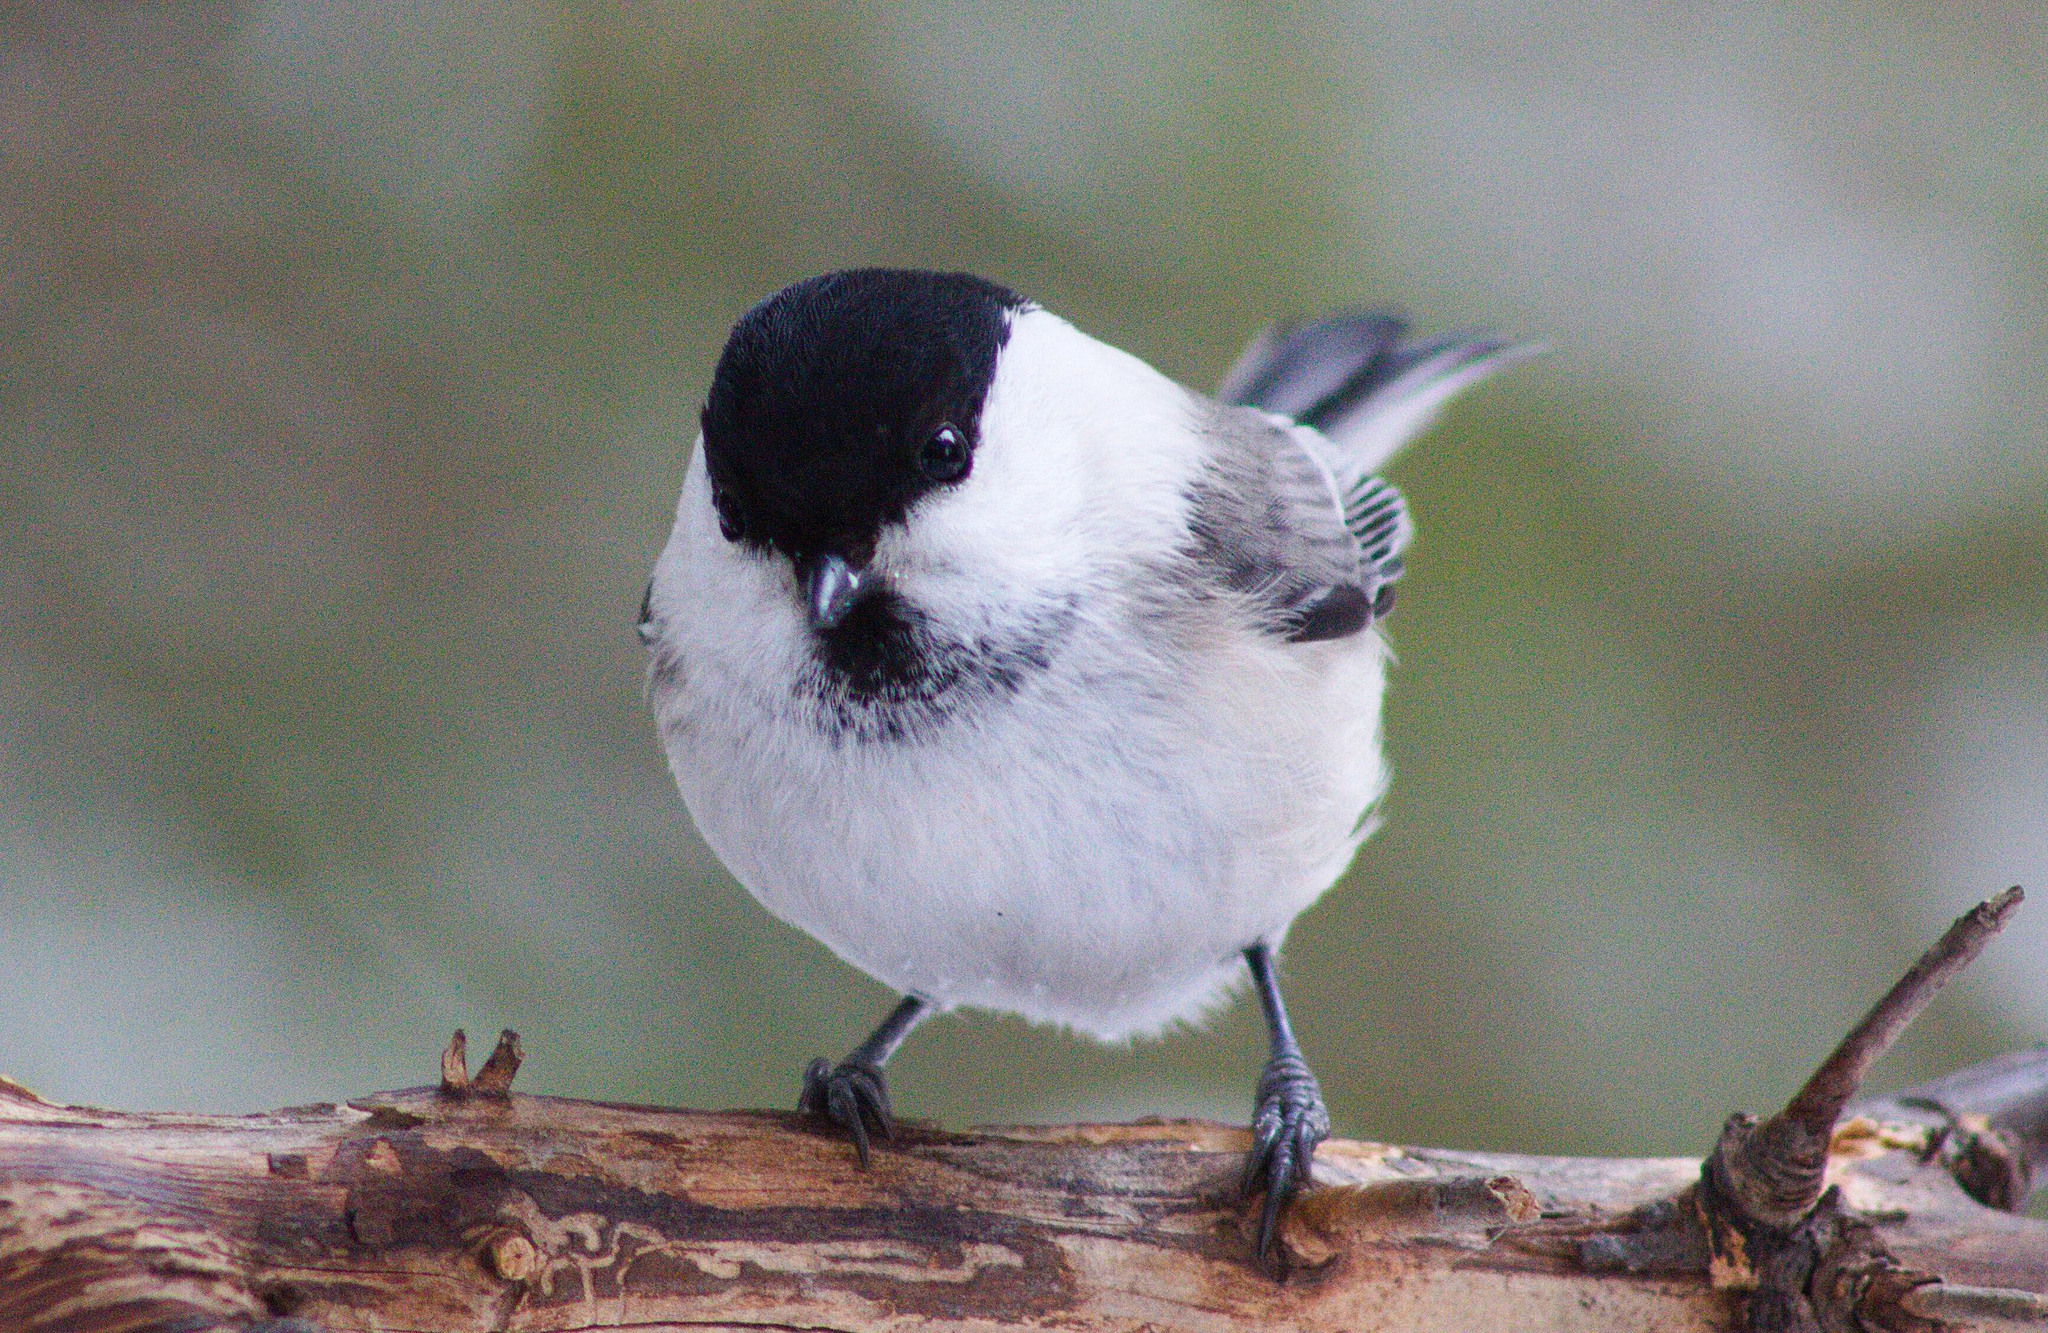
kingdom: Animalia
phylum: Chordata
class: Aves
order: Passeriformes
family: Paridae
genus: Poecile
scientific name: Poecile montanus
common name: Willow tit
